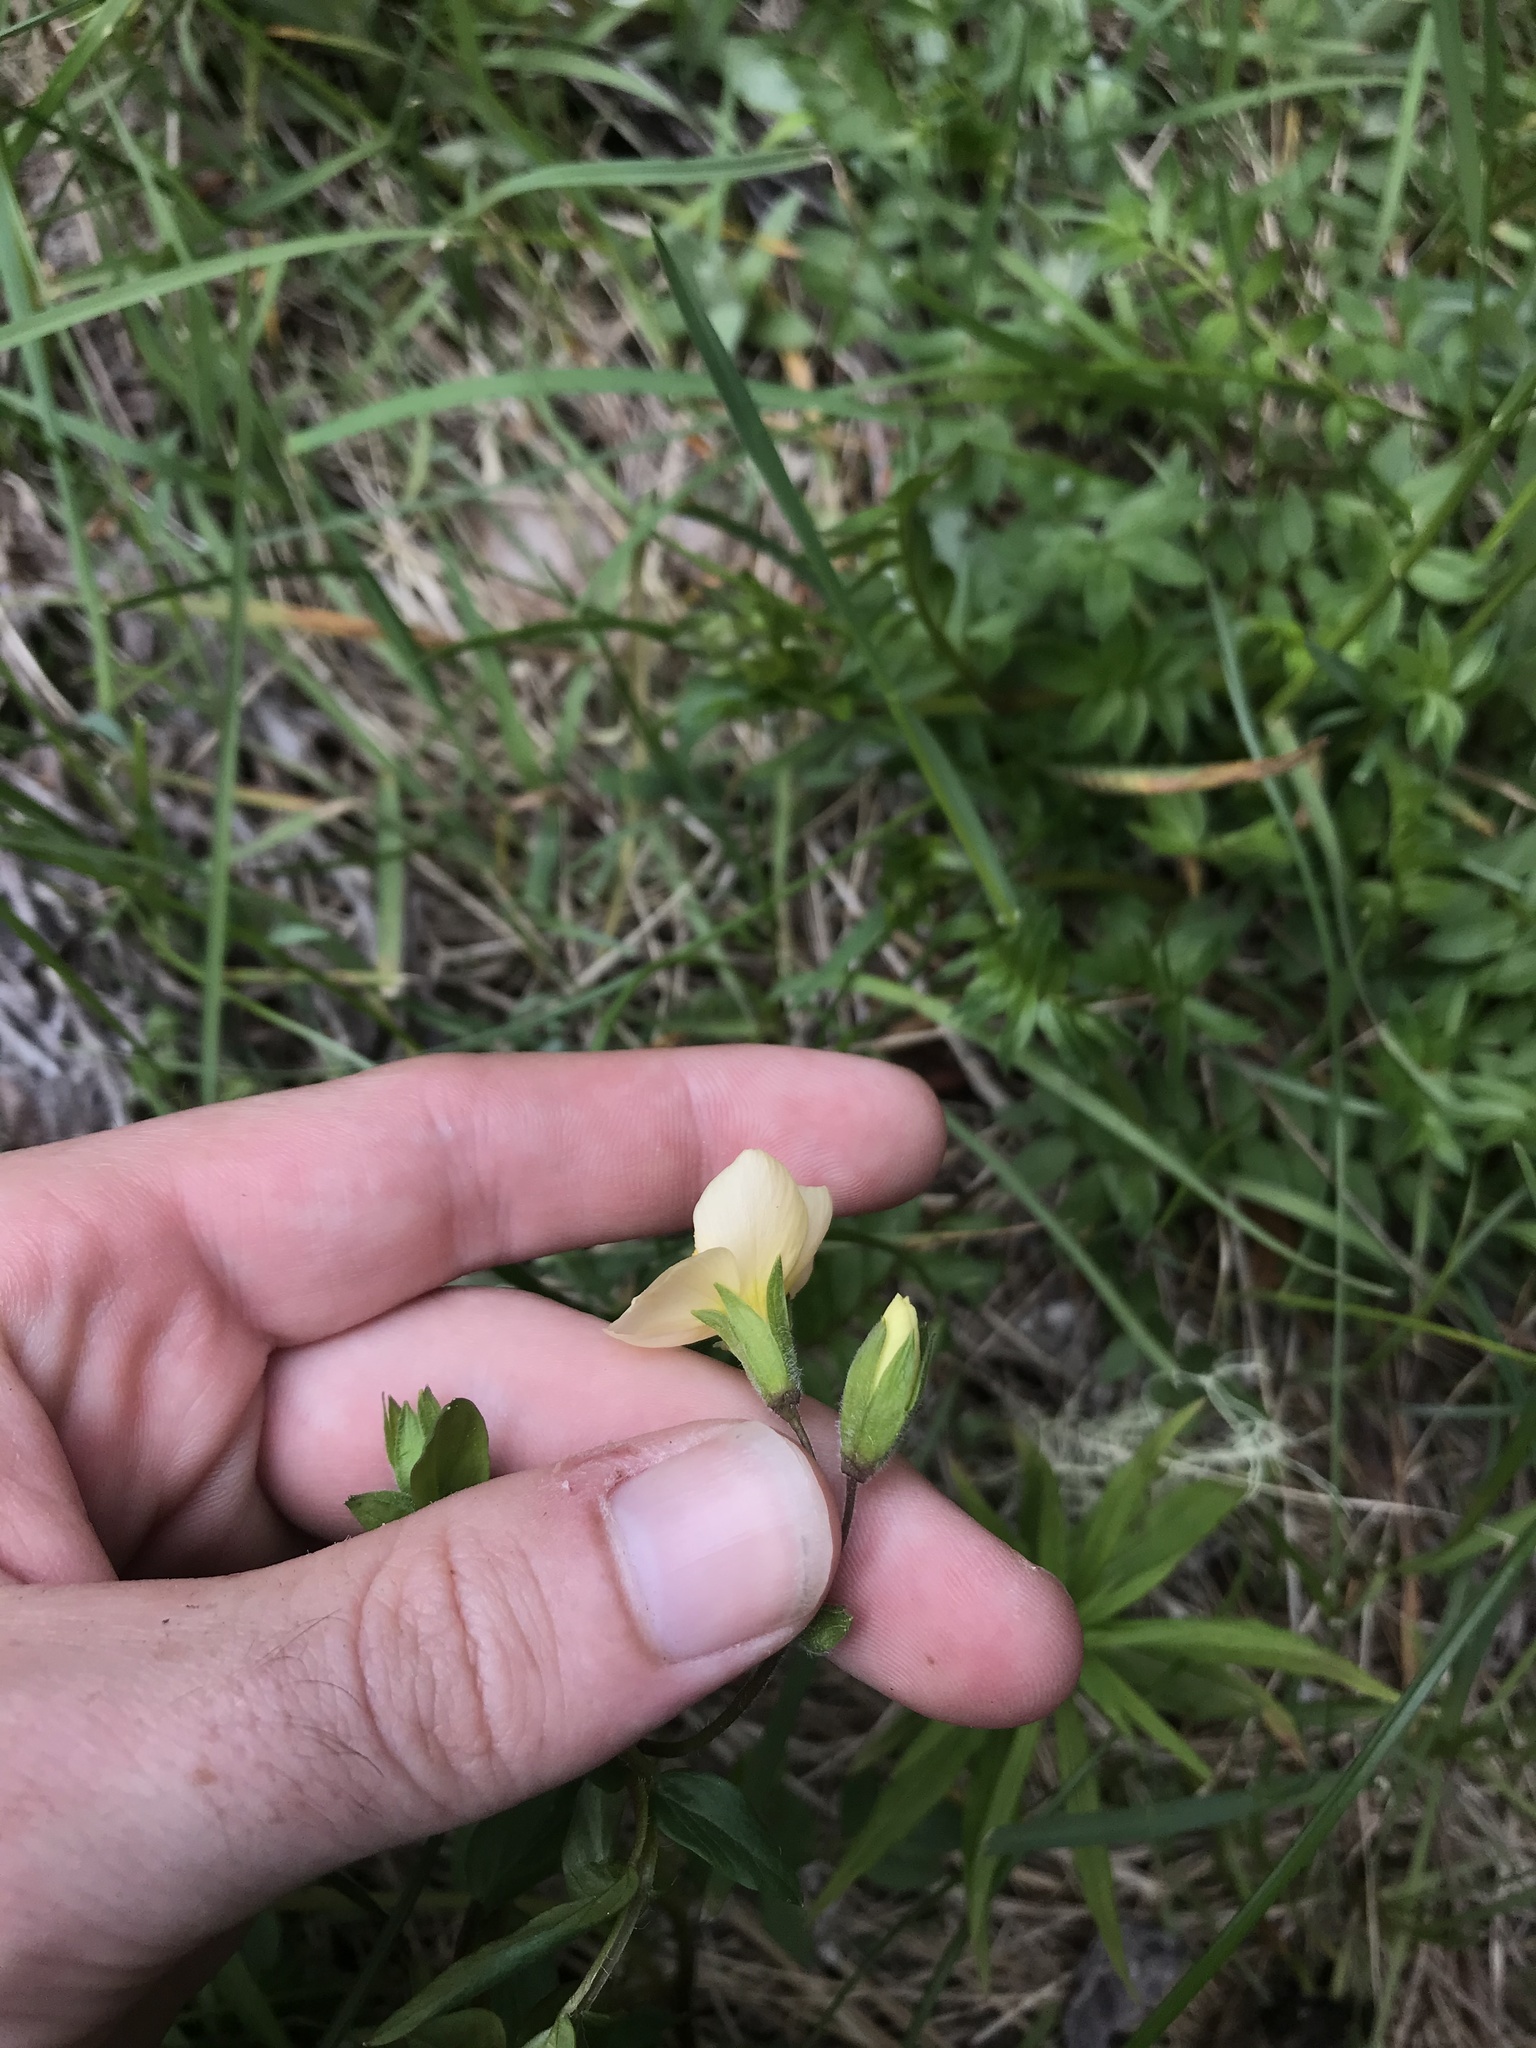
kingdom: Plantae
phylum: Tracheophyta
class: Magnoliopsida
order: Ericales
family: Polemoniaceae
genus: Polemonium
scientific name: Polemonium carneum
